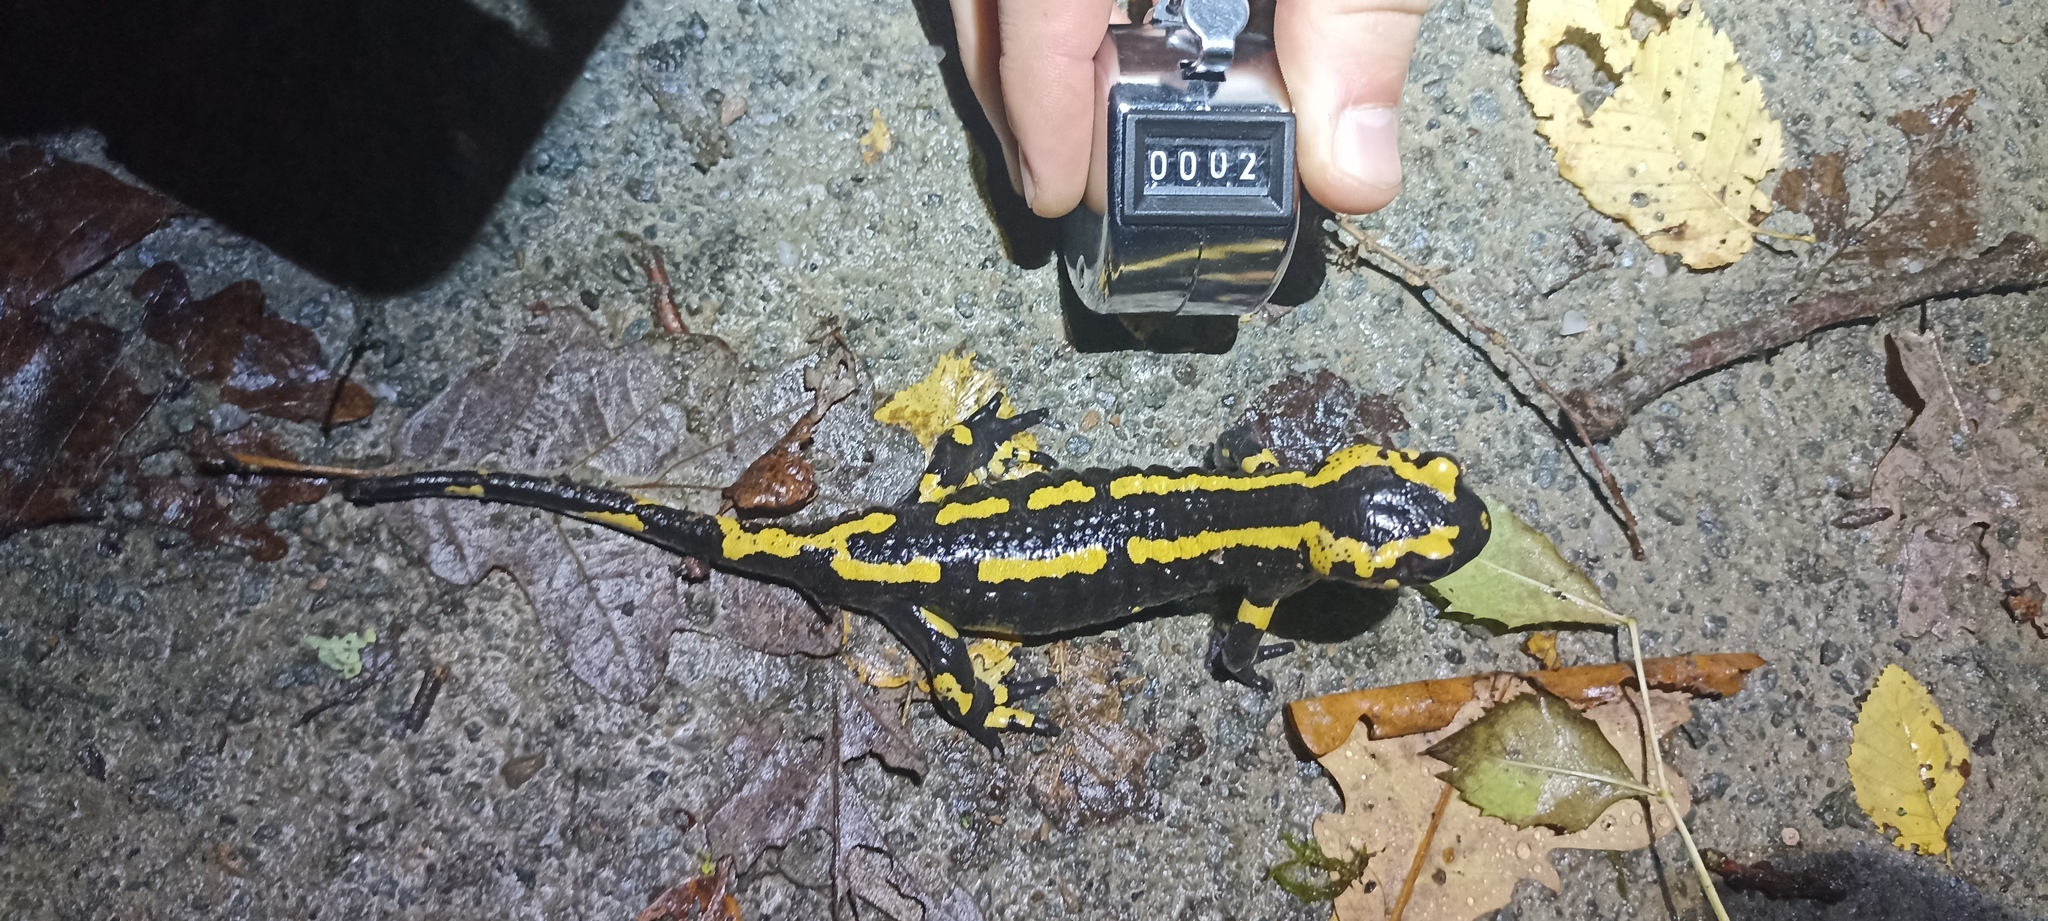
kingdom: Animalia
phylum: Chordata
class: Amphibia
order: Caudata
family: Salamandridae
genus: Salamandra
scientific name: Salamandra salamandra
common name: Fire salamander
